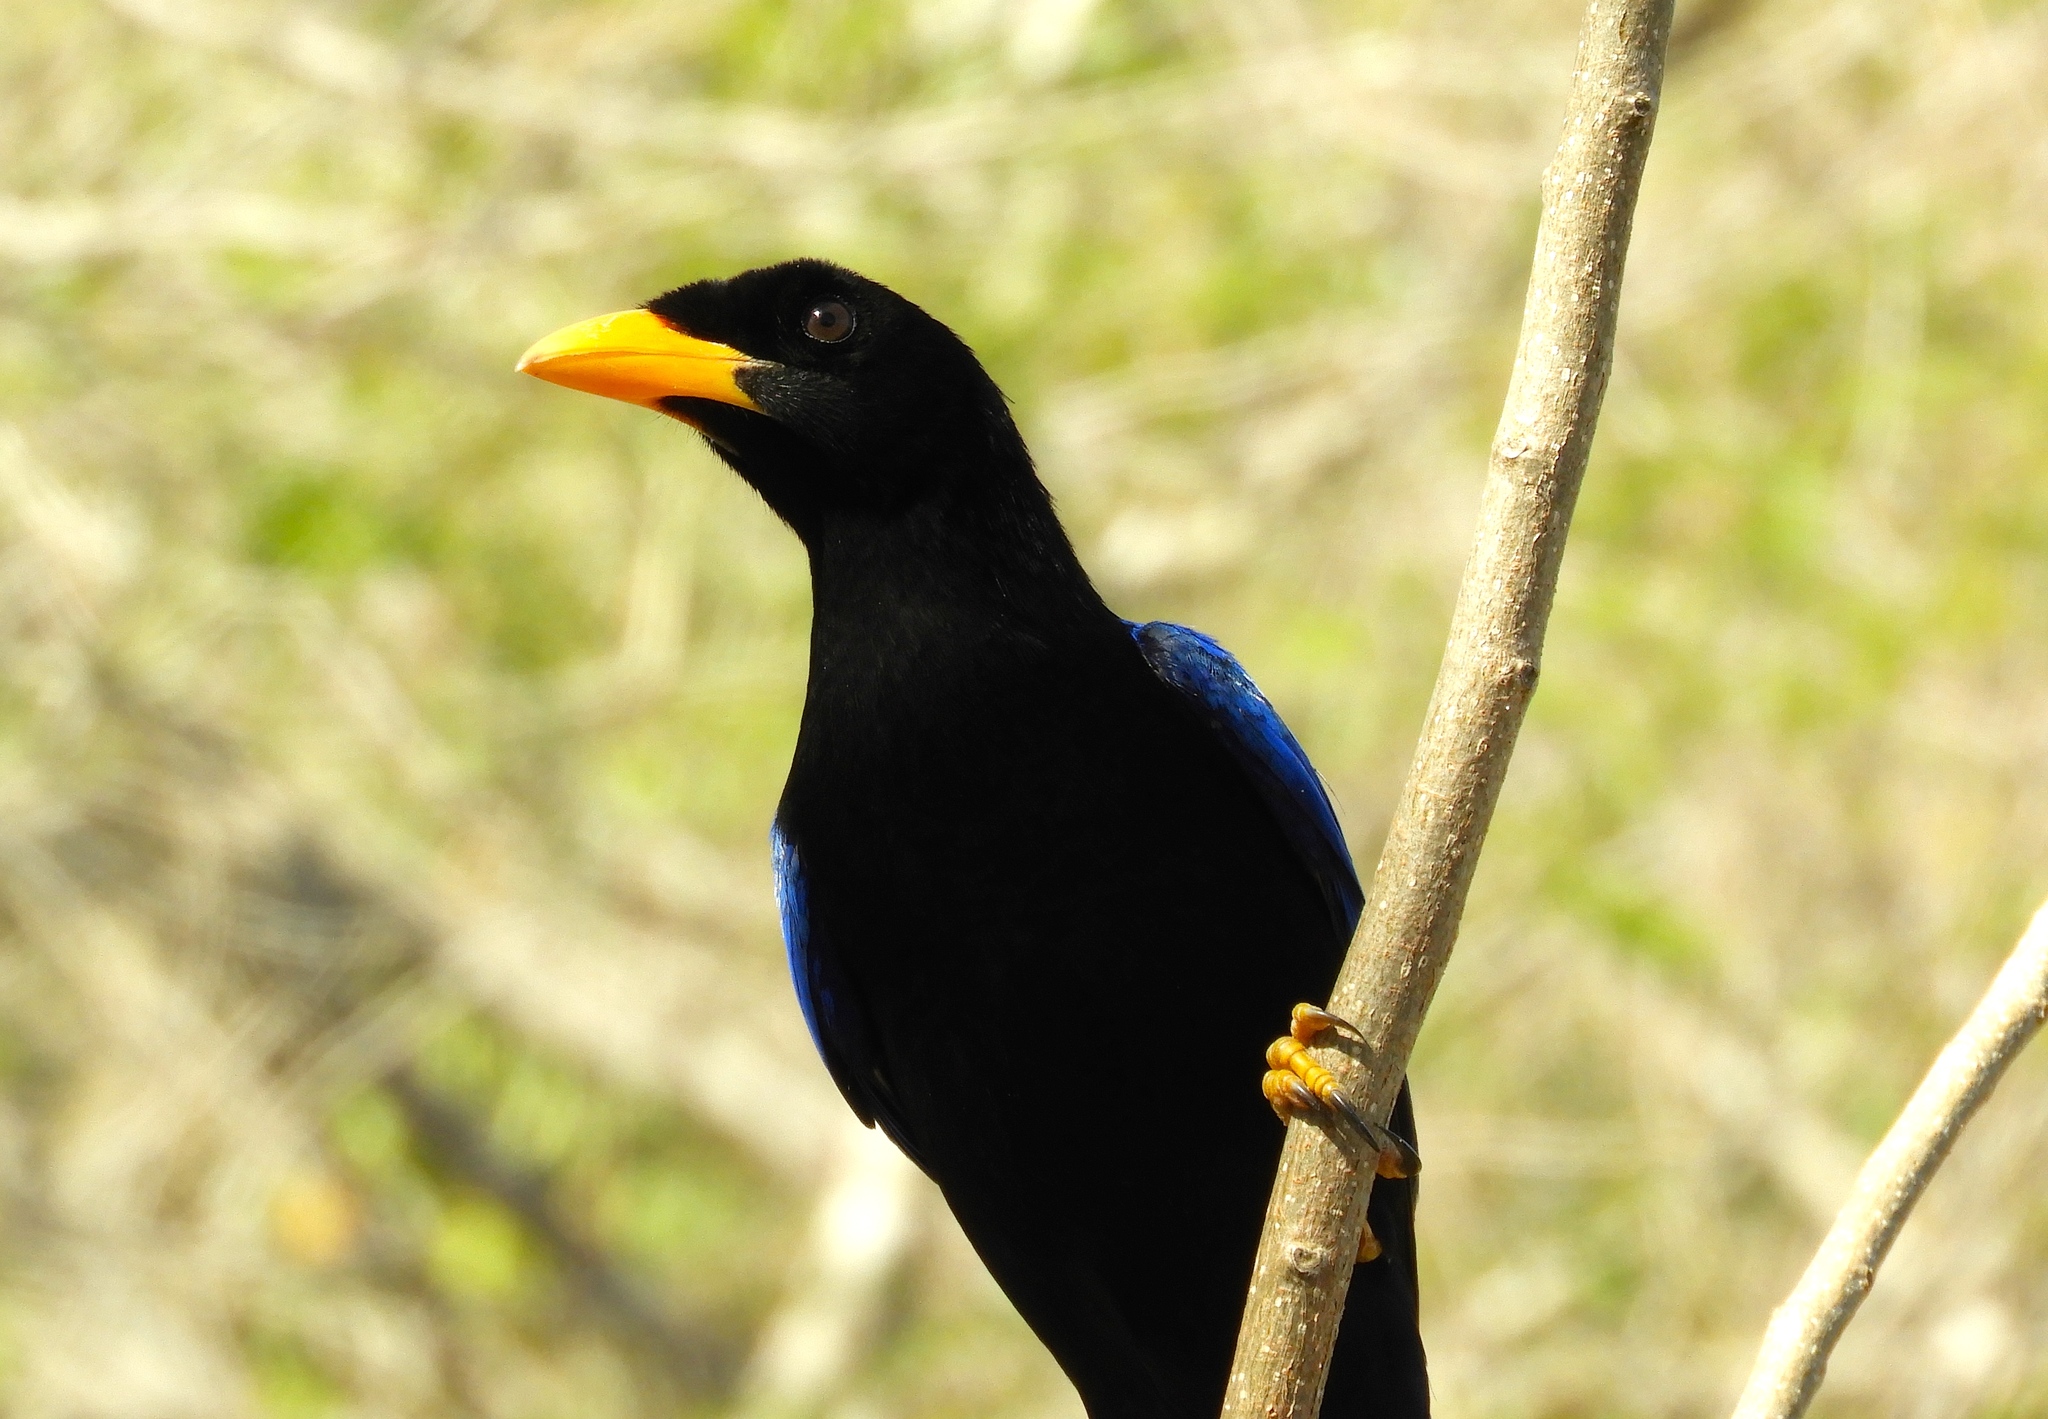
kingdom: Animalia
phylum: Chordata
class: Aves
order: Passeriformes
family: Corvidae
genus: Cyanocorax
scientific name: Cyanocorax beecheii
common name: Purplish-backed jay
